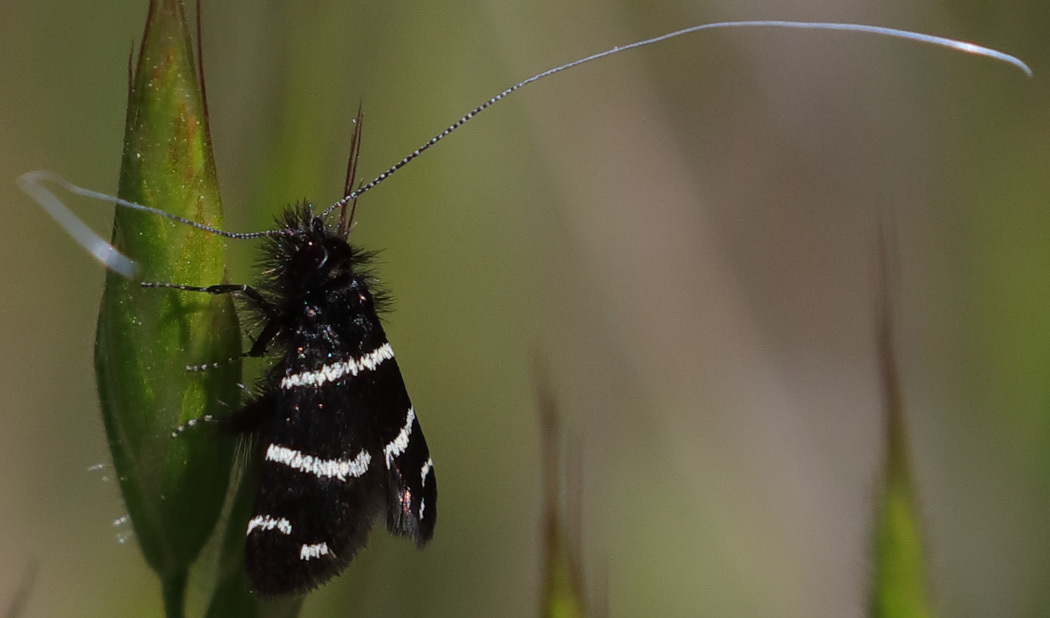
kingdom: Animalia
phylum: Arthropoda
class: Insecta
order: Lepidoptera
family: Adelidae
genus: Adela
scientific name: Adela trigrapha
